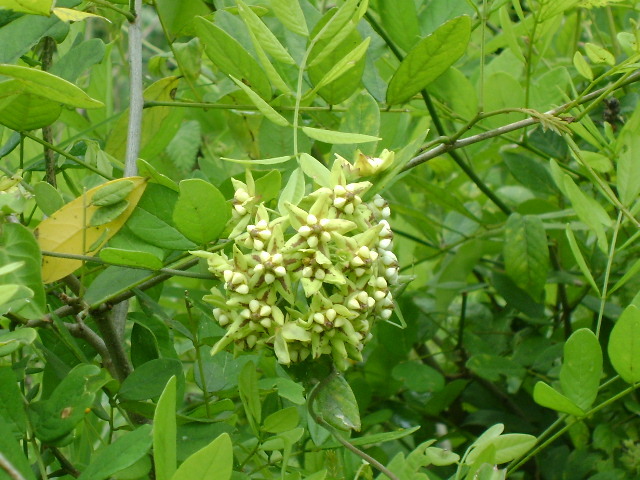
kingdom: Plantae
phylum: Tracheophyta
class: Magnoliopsida
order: Gentianales
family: Apocynaceae
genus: Funastrum
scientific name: Funastrum lindenianum
